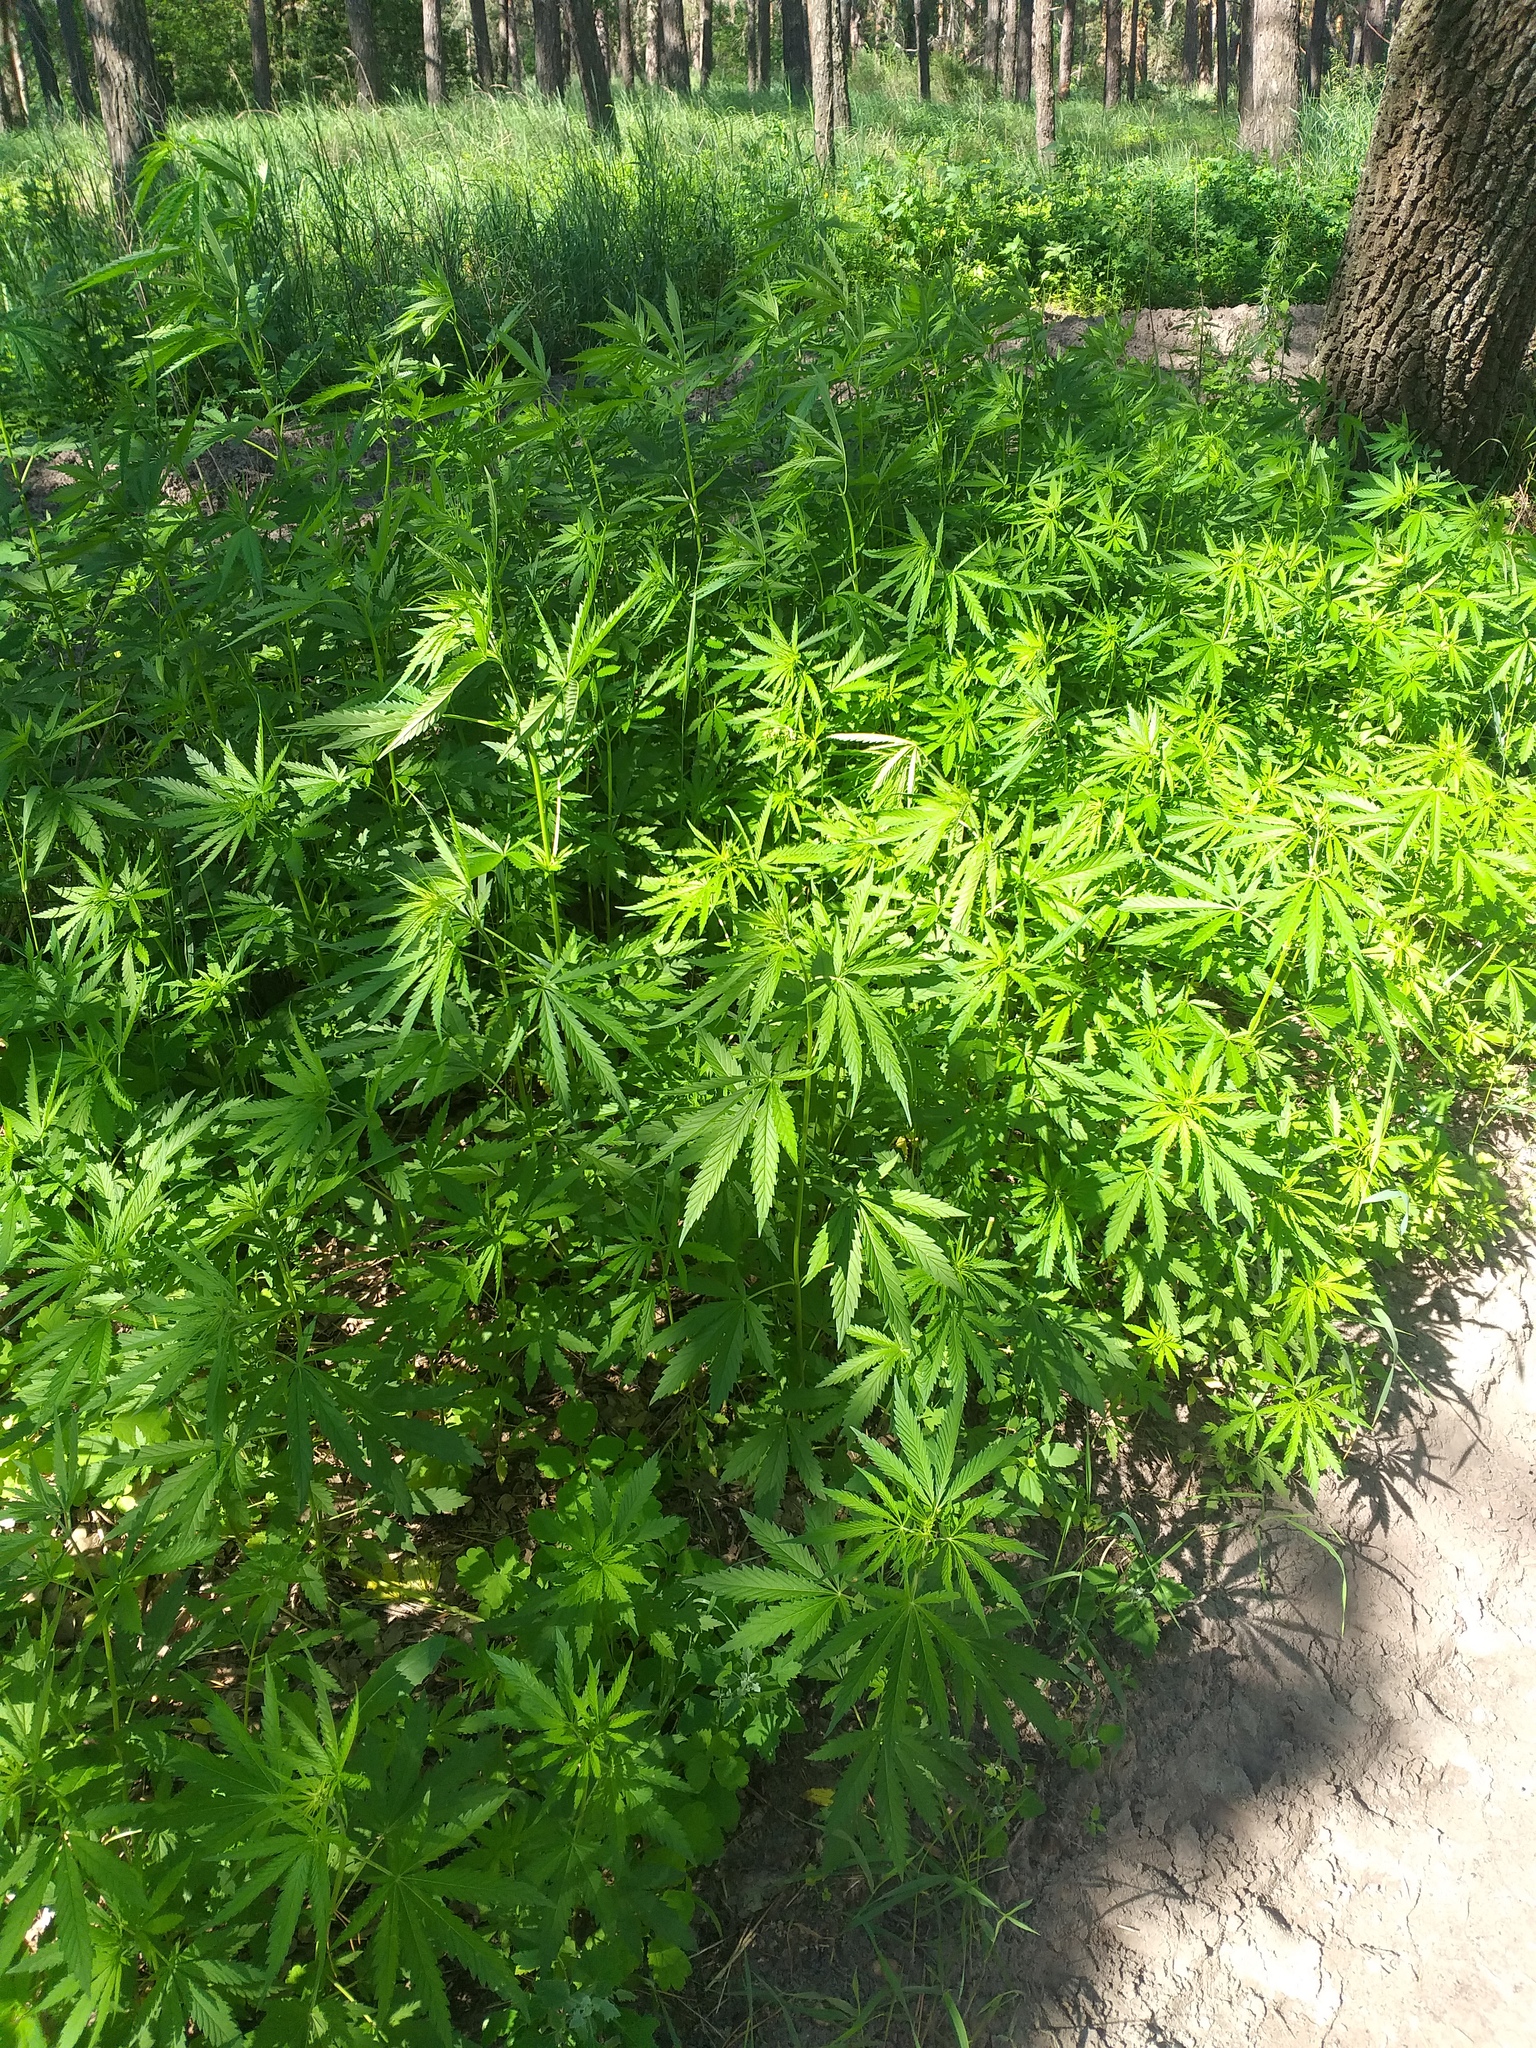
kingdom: Plantae
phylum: Tracheophyta
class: Magnoliopsida
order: Rosales
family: Cannabaceae
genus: Cannabis
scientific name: Cannabis sativa
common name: Hemp
